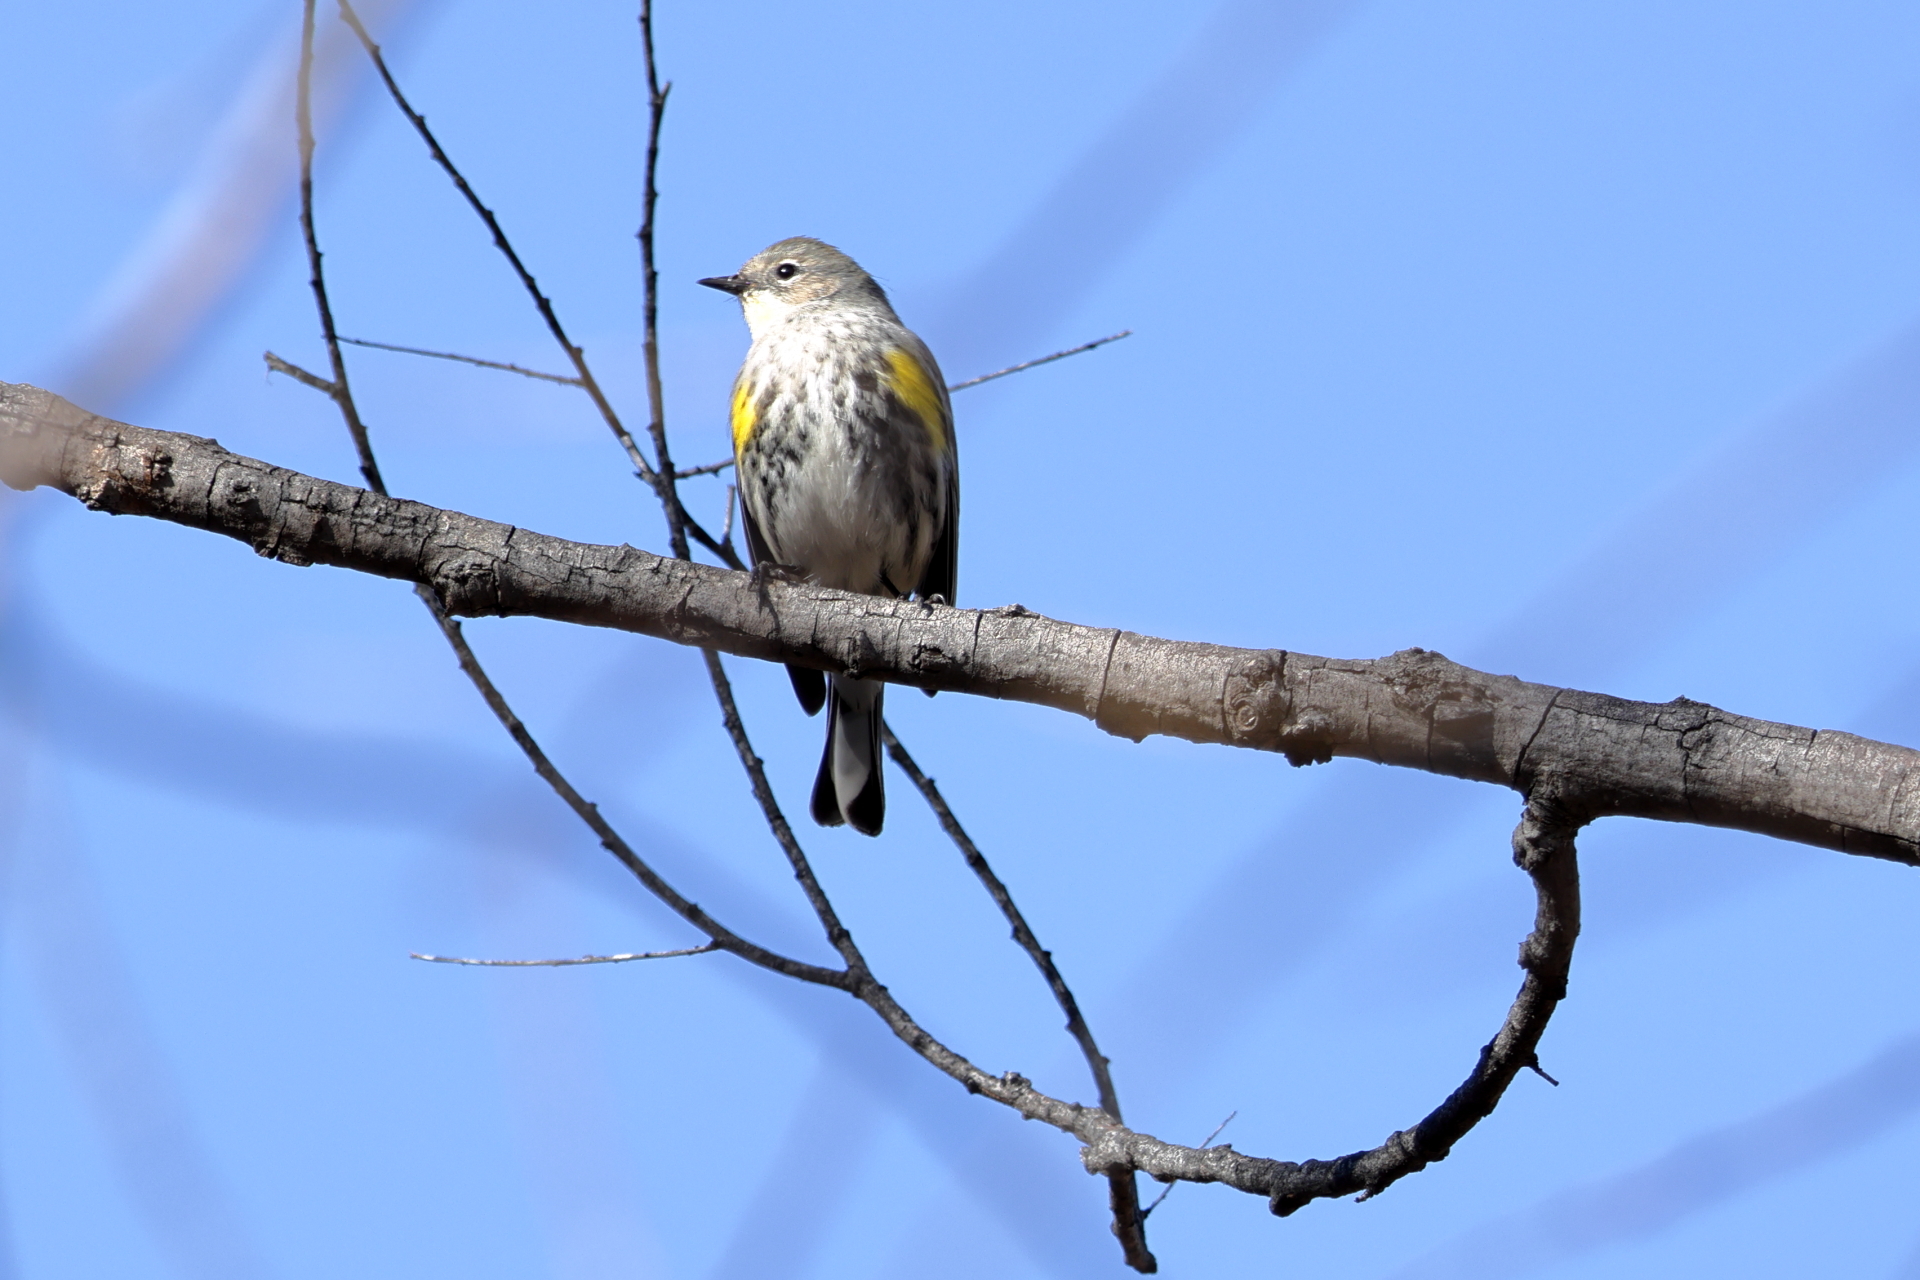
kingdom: Animalia
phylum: Chordata
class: Aves
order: Passeriformes
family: Parulidae
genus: Setophaga
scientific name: Setophaga coronata
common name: Myrtle warbler
